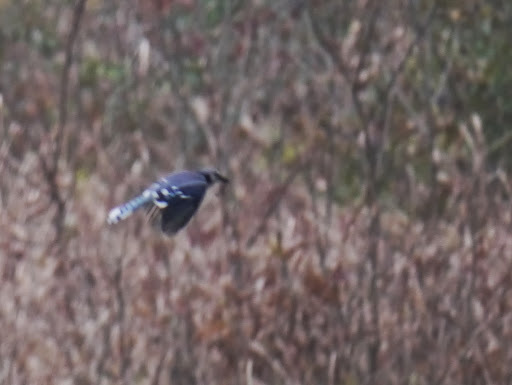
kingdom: Animalia
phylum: Chordata
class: Aves
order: Passeriformes
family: Corvidae
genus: Cyanocitta
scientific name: Cyanocitta cristata
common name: Blue jay
